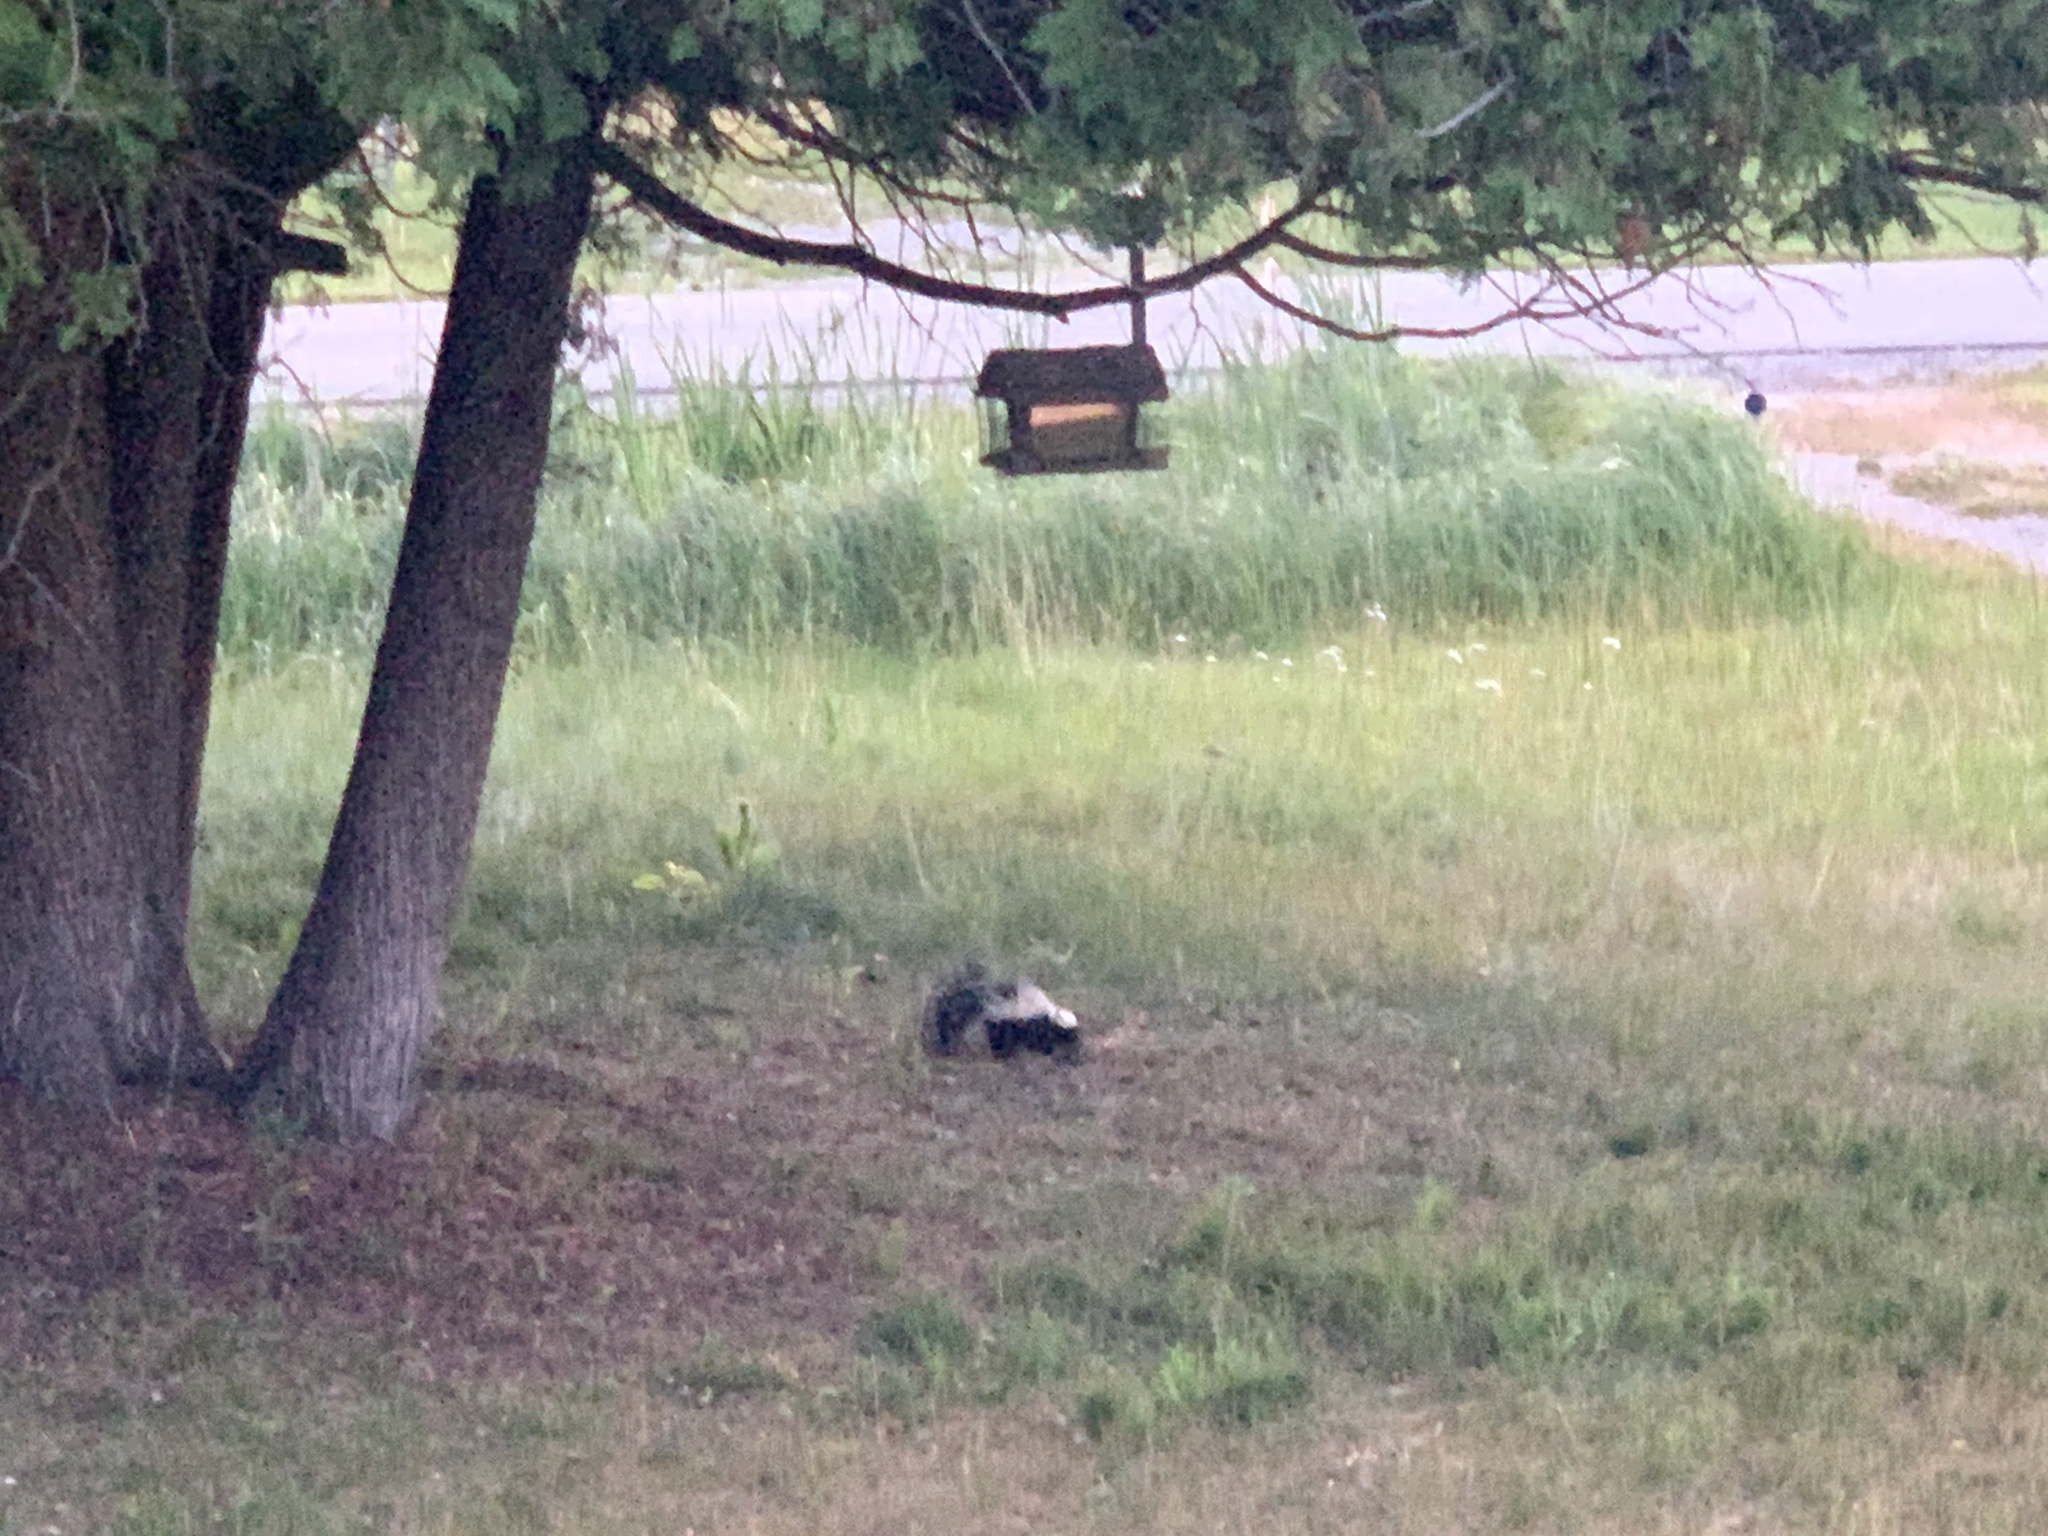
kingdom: Animalia
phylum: Chordata
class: Mammalia
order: Carnivora
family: Mephitidae
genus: Mephitis
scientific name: Mephitis mephitis
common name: Striped skunk
